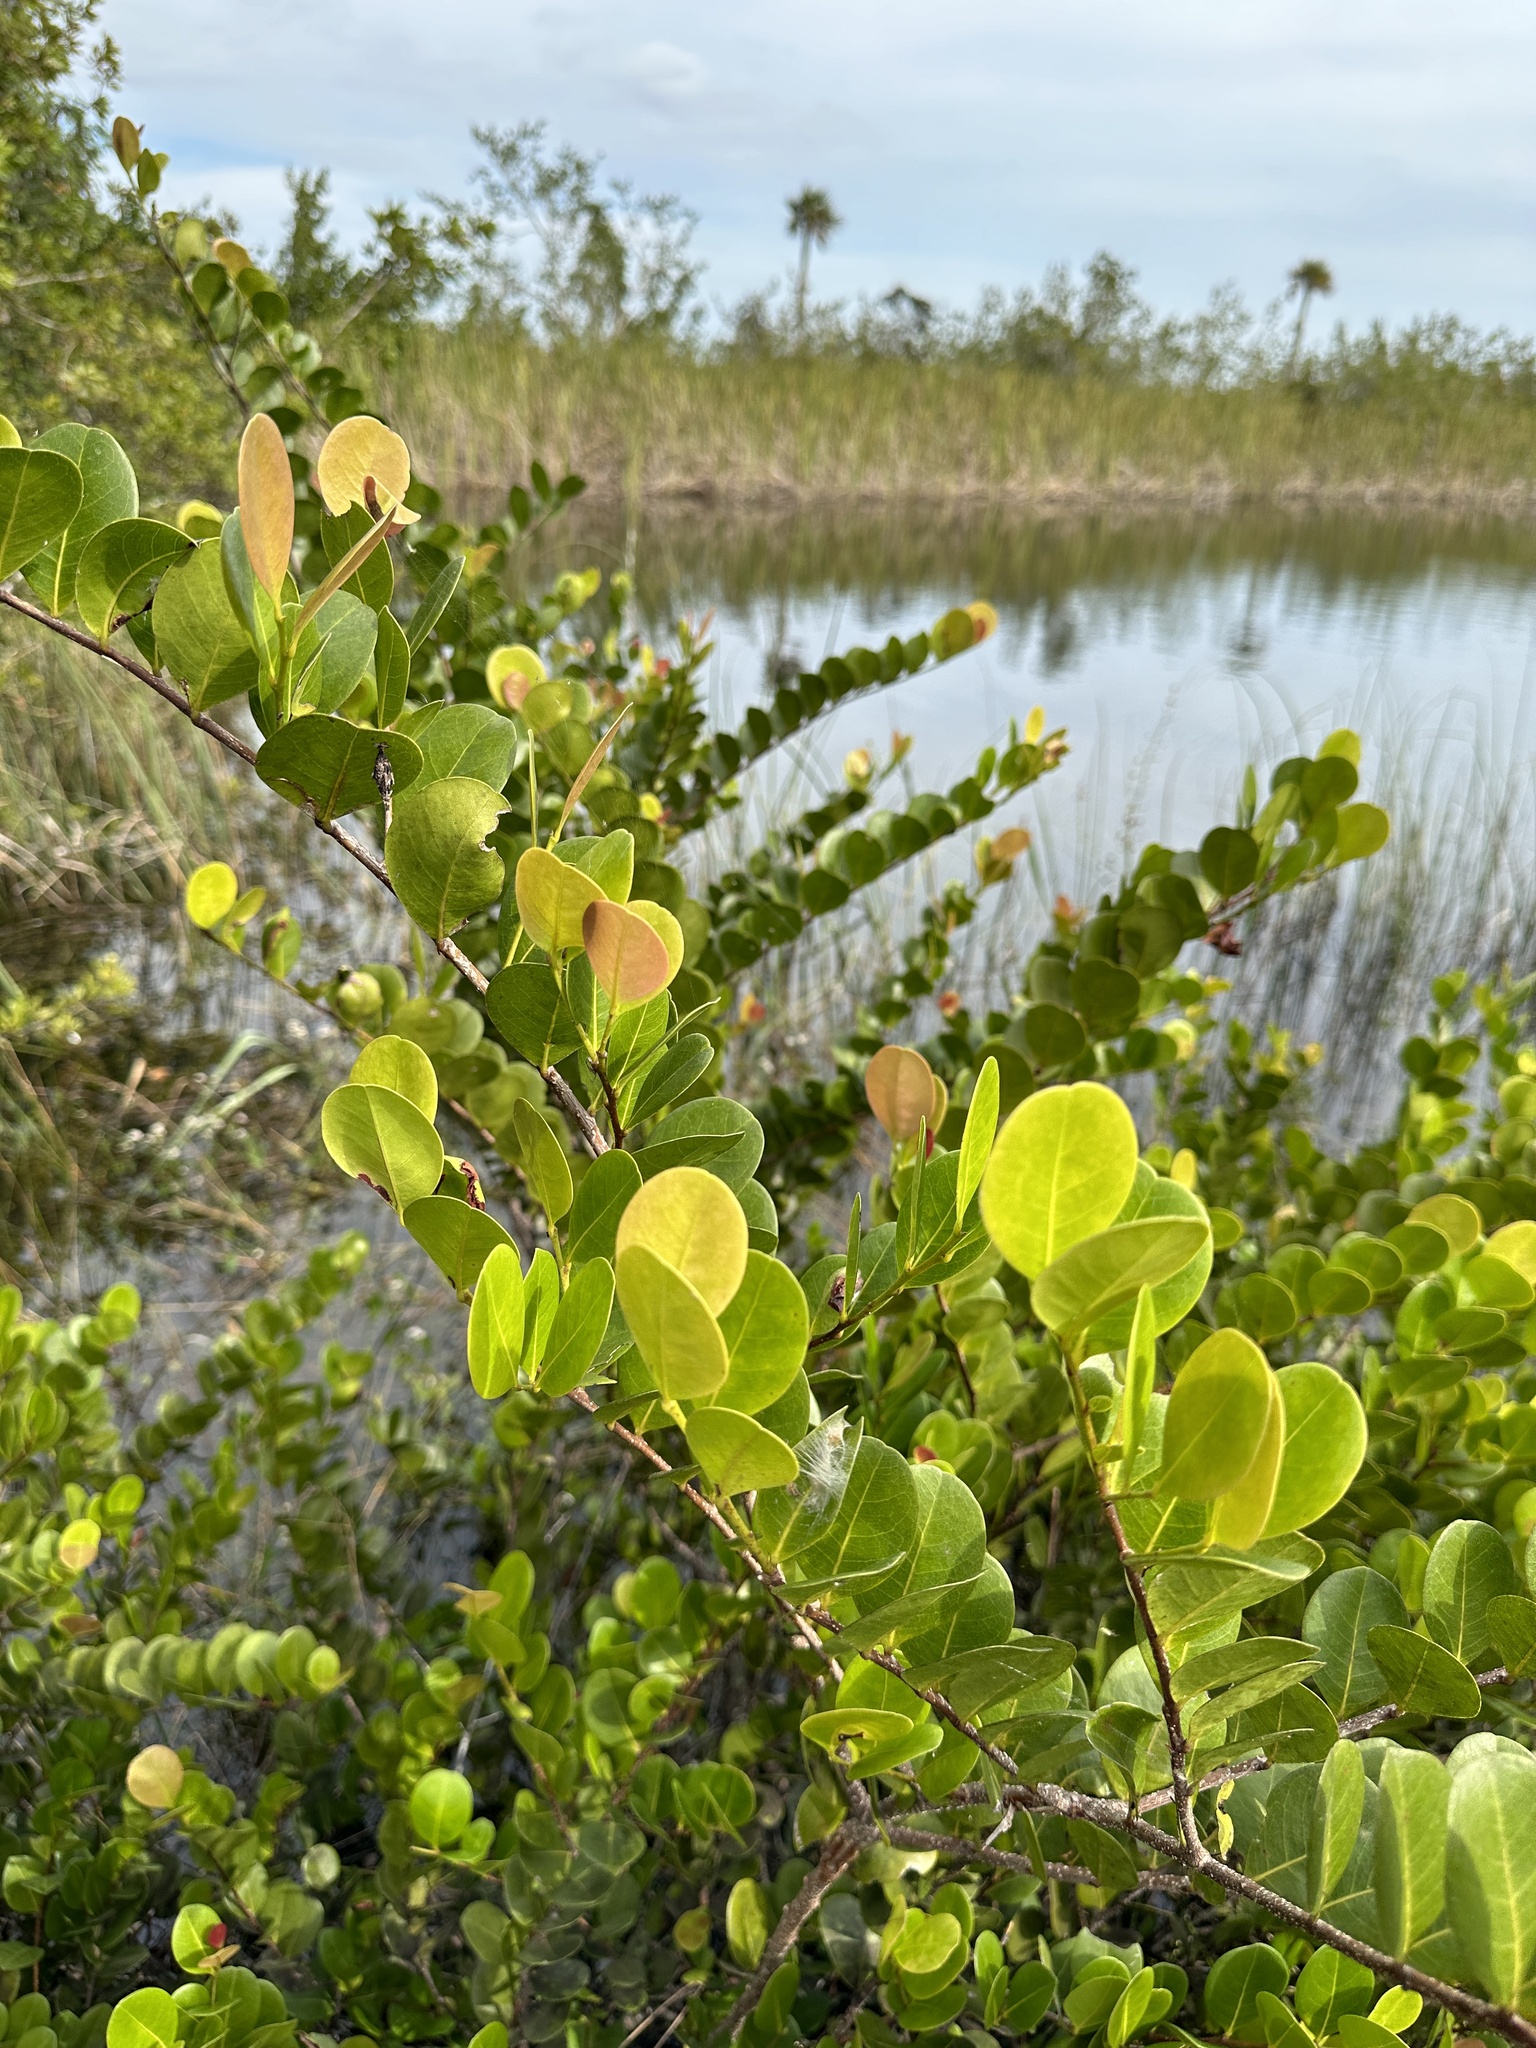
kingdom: Plantae
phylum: Tracheophyta
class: Magnoliopsida
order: Malpighiales
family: Chrysobalanaceae
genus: Chrysobalanus
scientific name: Chrysobalanus icaco
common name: Coco plum
